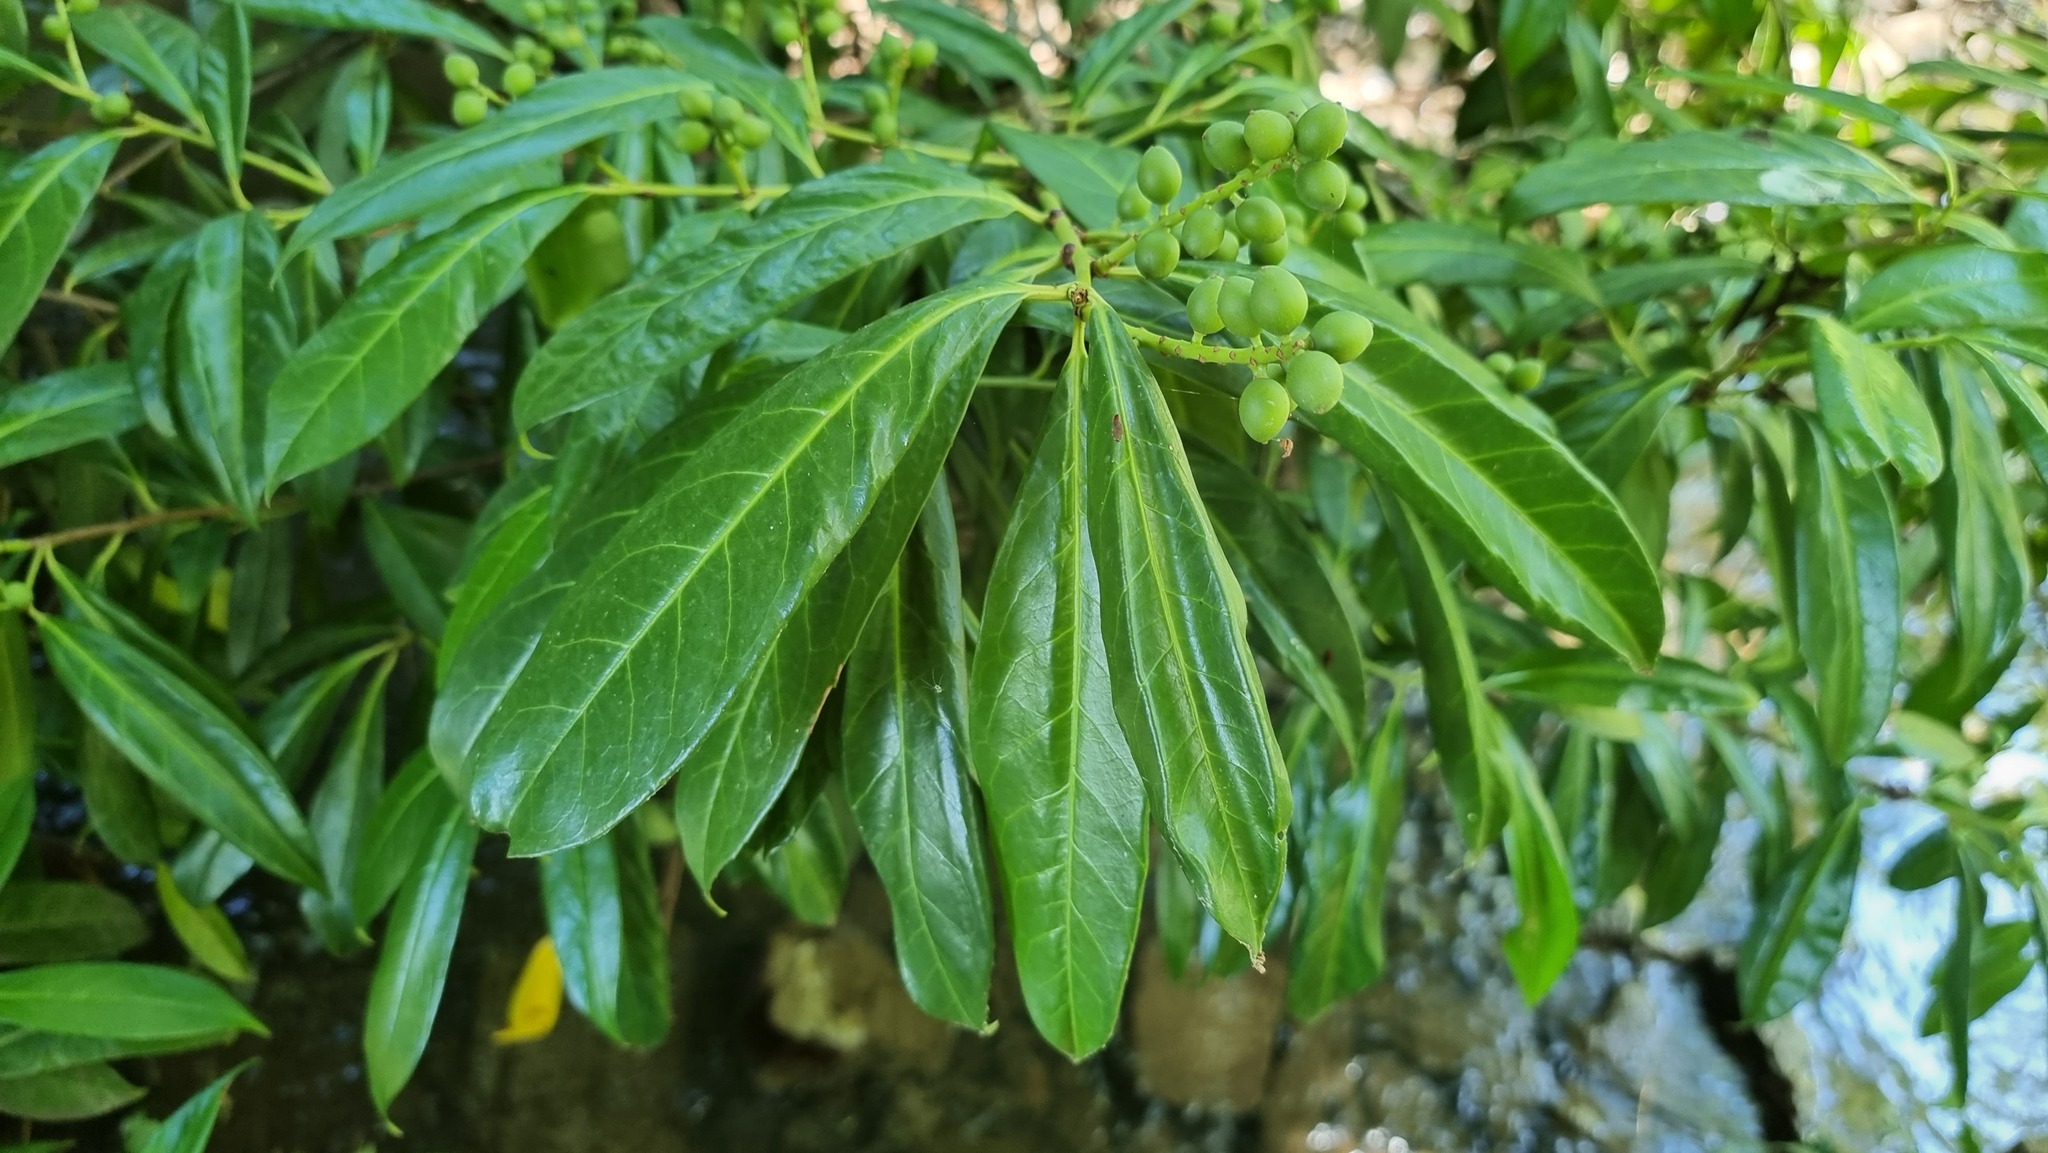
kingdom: Plantae
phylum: Tracheophyta
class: Magnoliopsida
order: Rosales
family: Rosaceae
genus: Prunus
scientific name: Prunus laurocerasus
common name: Cherry laurel
